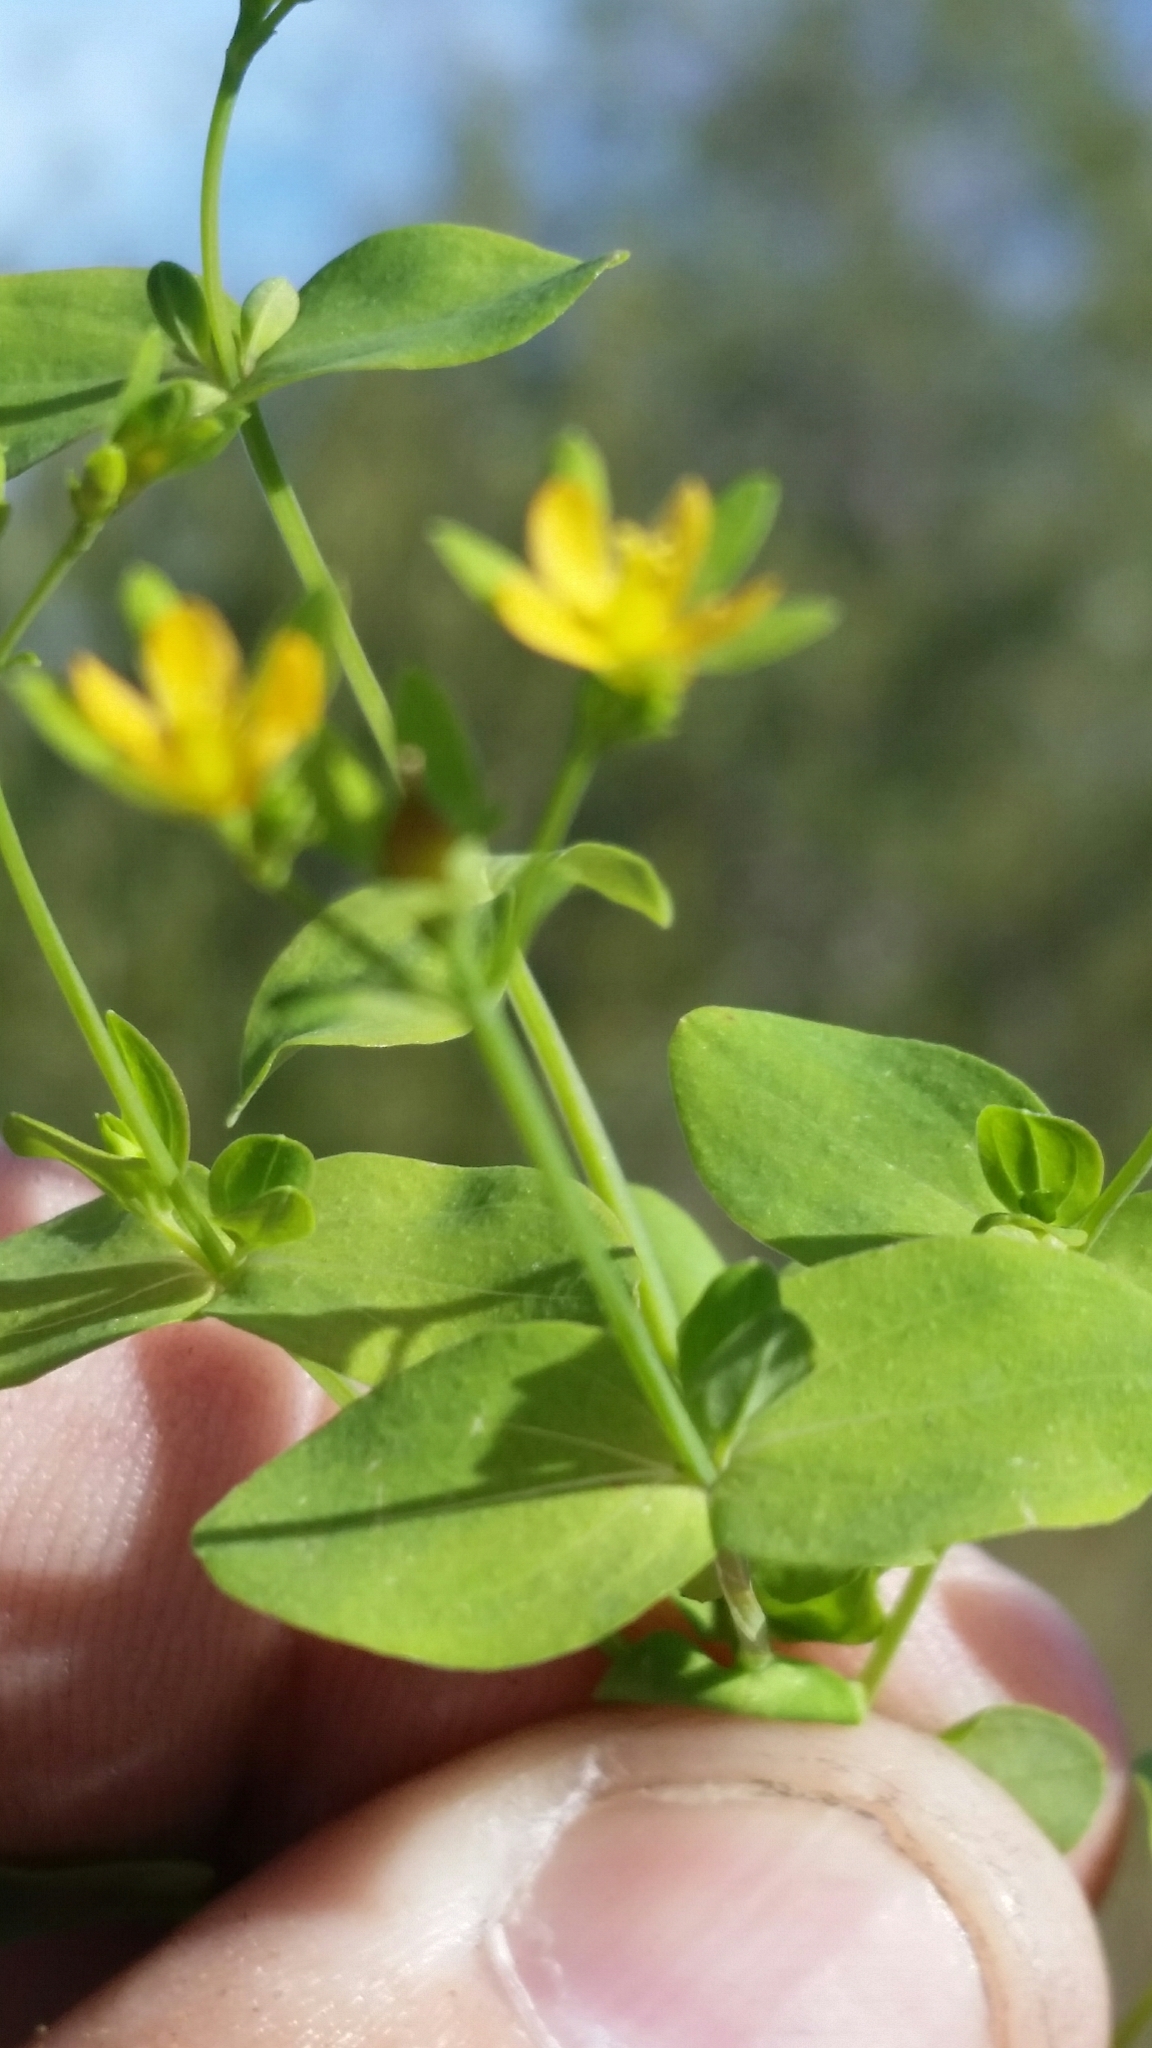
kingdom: Plantae
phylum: Tracheophyta
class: Magnoliopsida
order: Malpighiales
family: Hypericaceae
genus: Hypericum
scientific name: Hypericum mutilum
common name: Dwarf st. john's-wort
